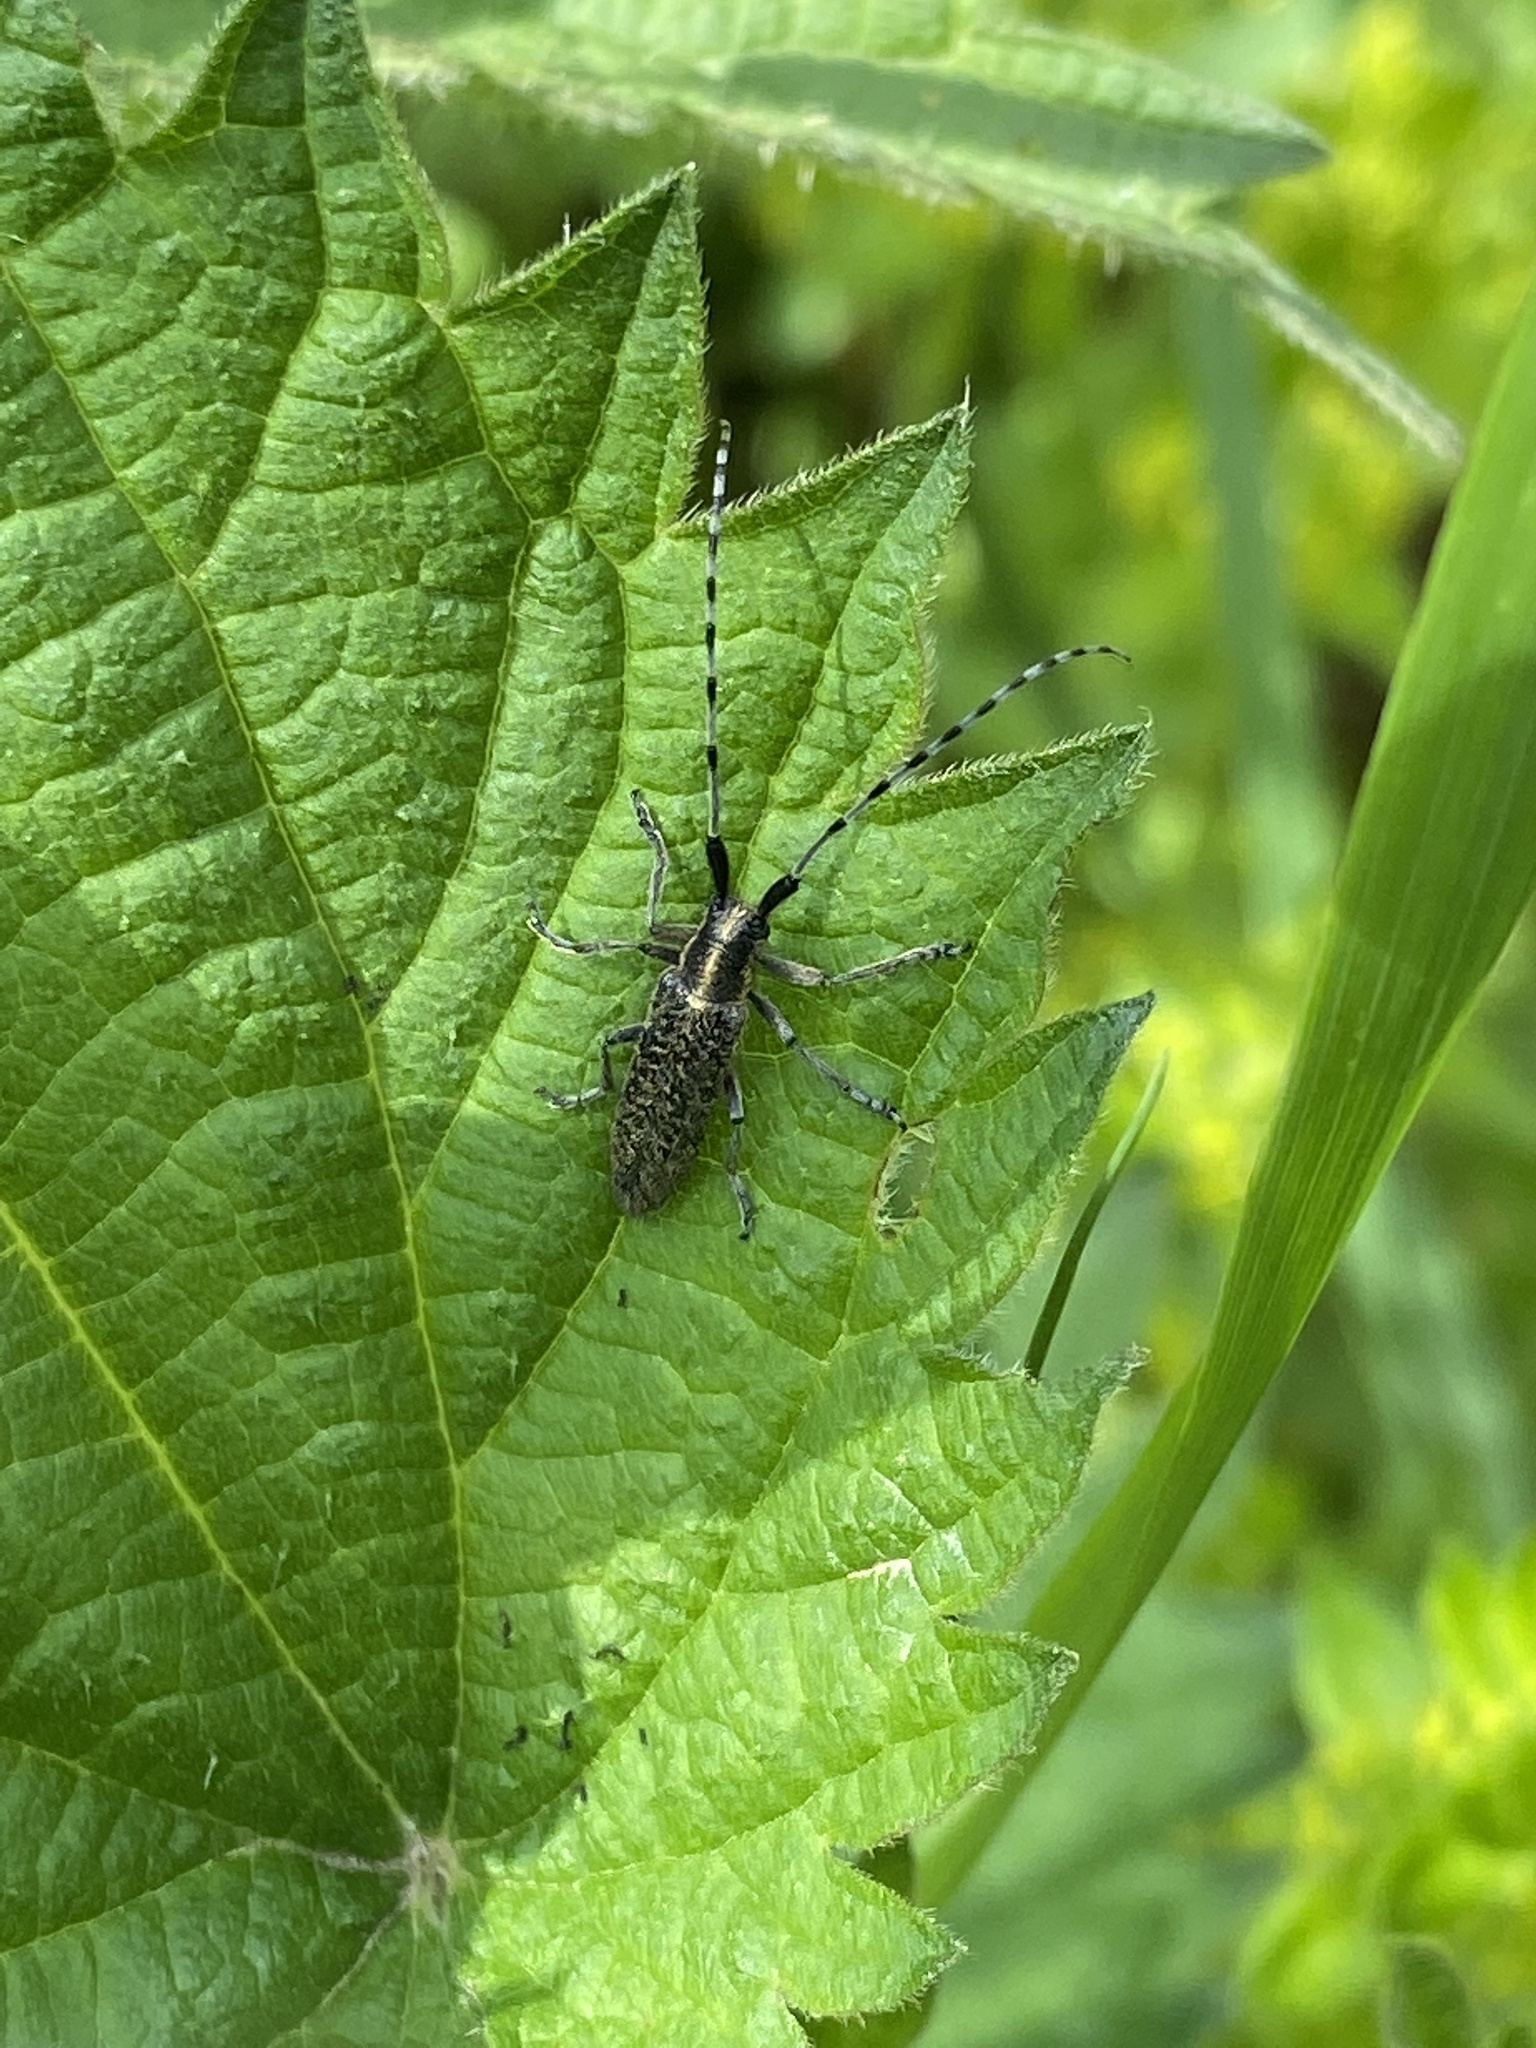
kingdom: Animalia
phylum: Arthropoda
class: Insecta
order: Coleoptera
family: Cerambycidae
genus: Agapanthia
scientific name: Agapanthia villosoviridescens
